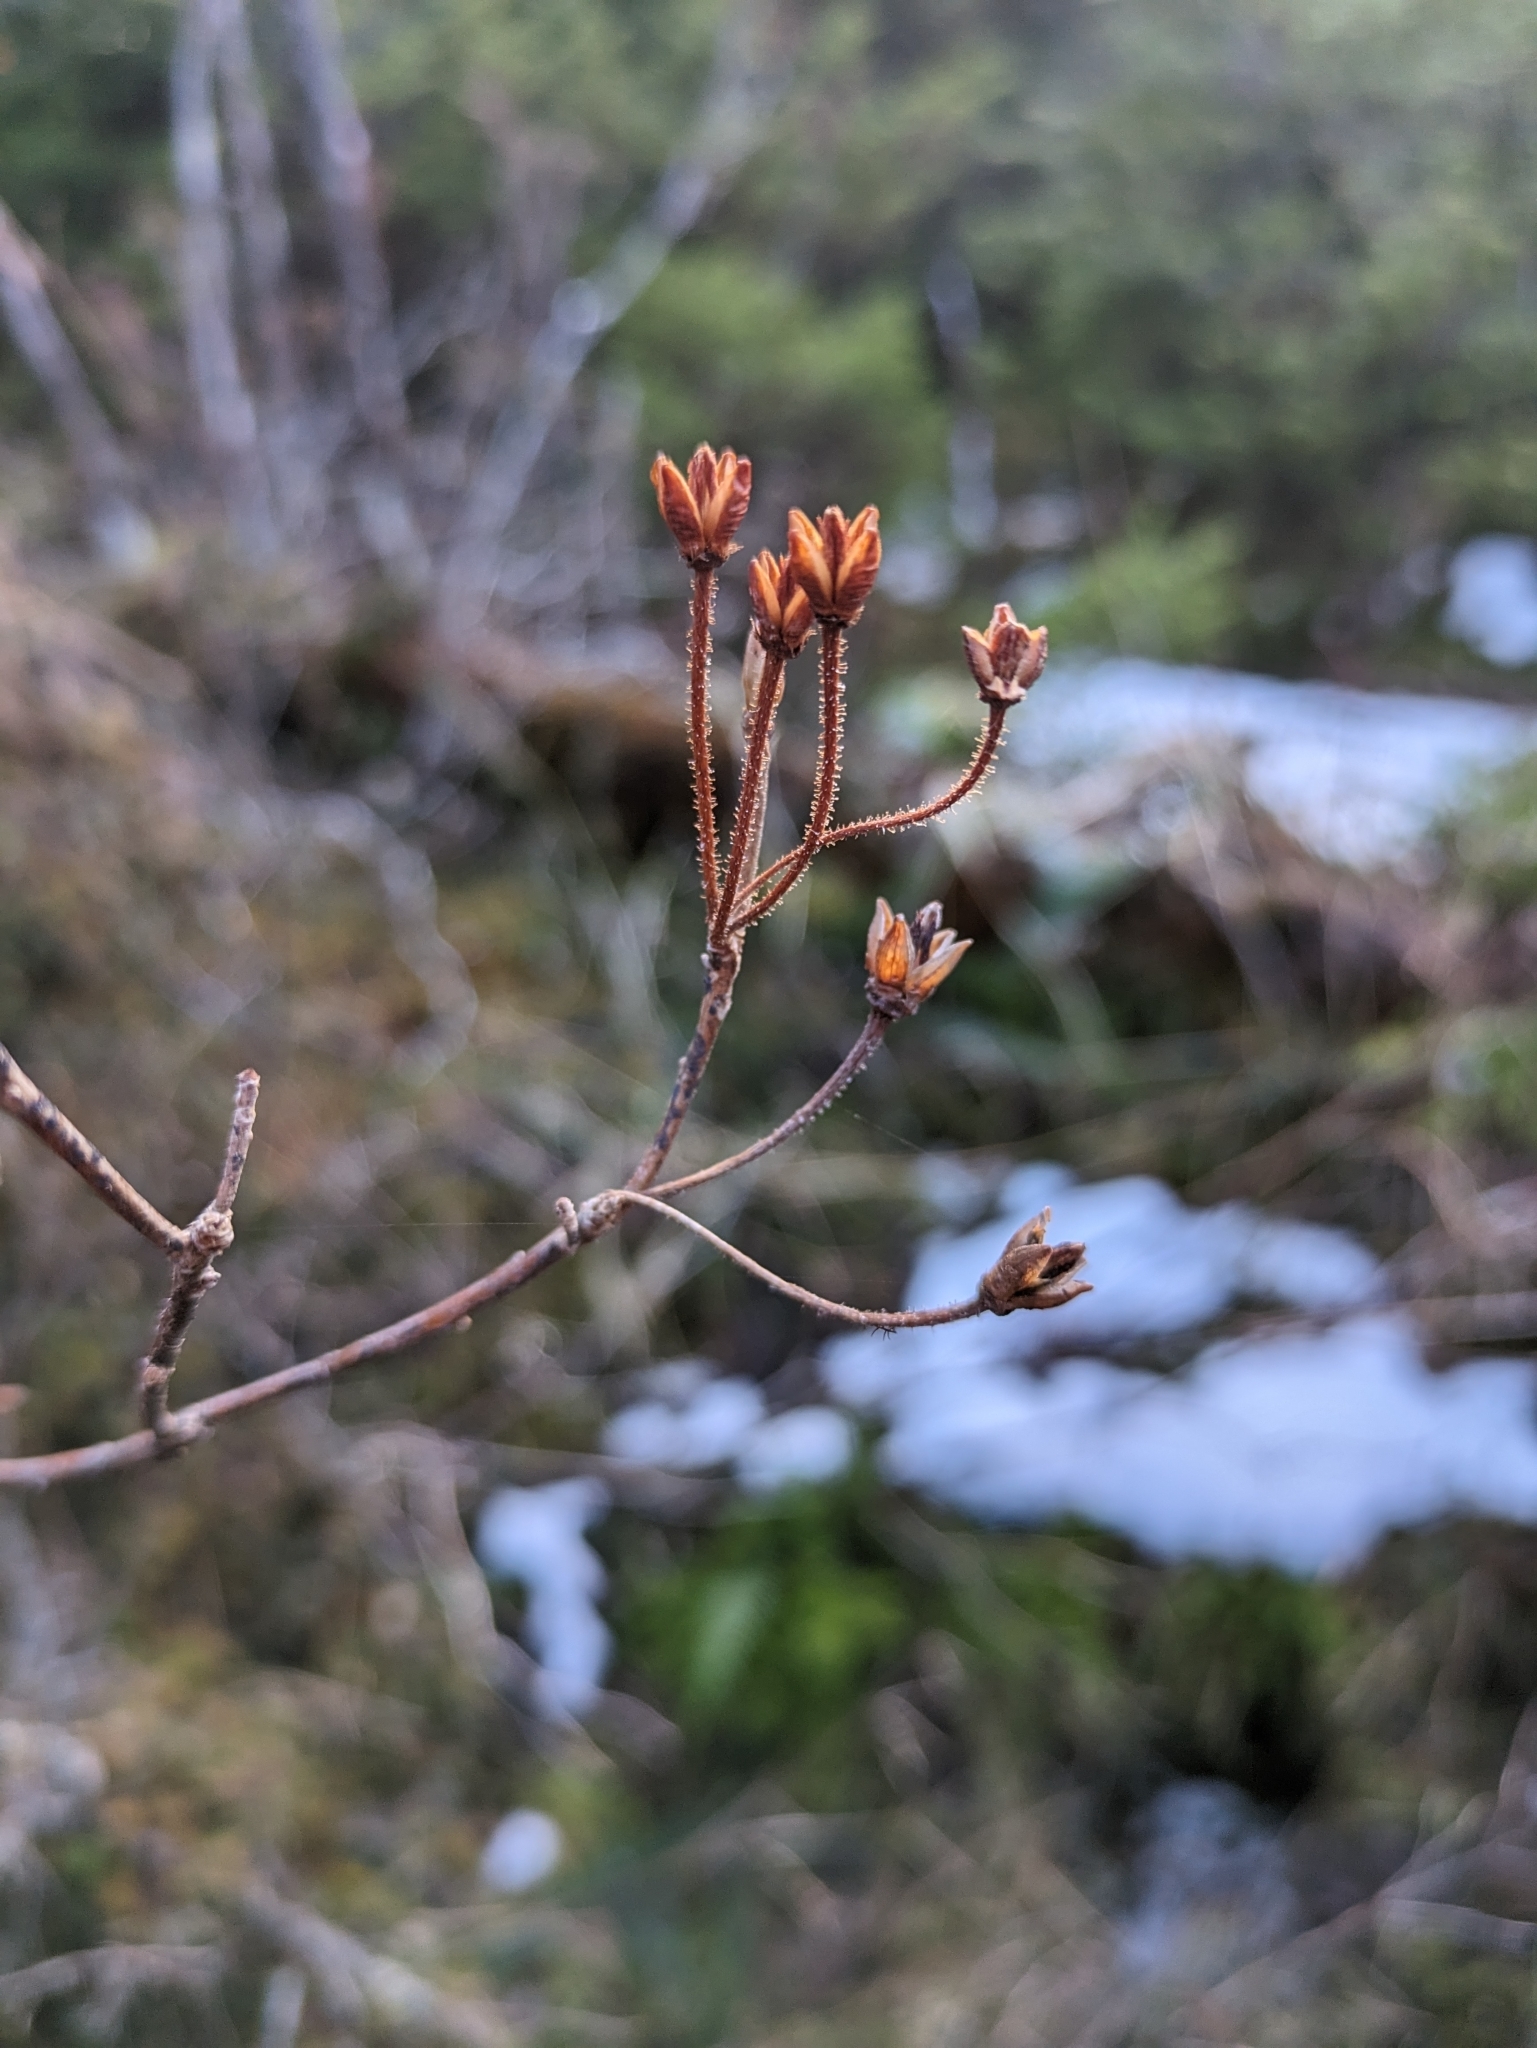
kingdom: Plantae
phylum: Tracheophyta
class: Magnoliopsida
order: Ericales
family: Ericaceae
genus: Rhododendron
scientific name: Rhododendron menziesii
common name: Pacific menziesia
